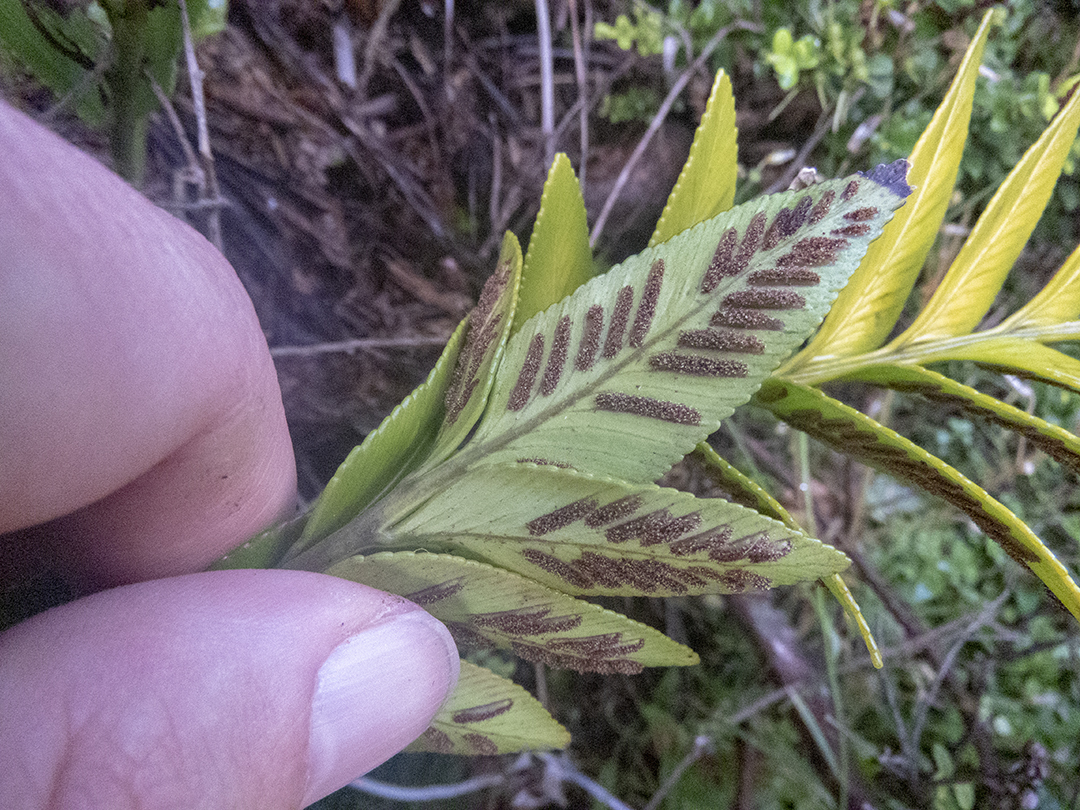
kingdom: Plantae
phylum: Tracheophyta
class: Polypodiopsida
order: Polypodiales
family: Aspleniaceae
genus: Asplenium
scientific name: Asplenium obtusatum
